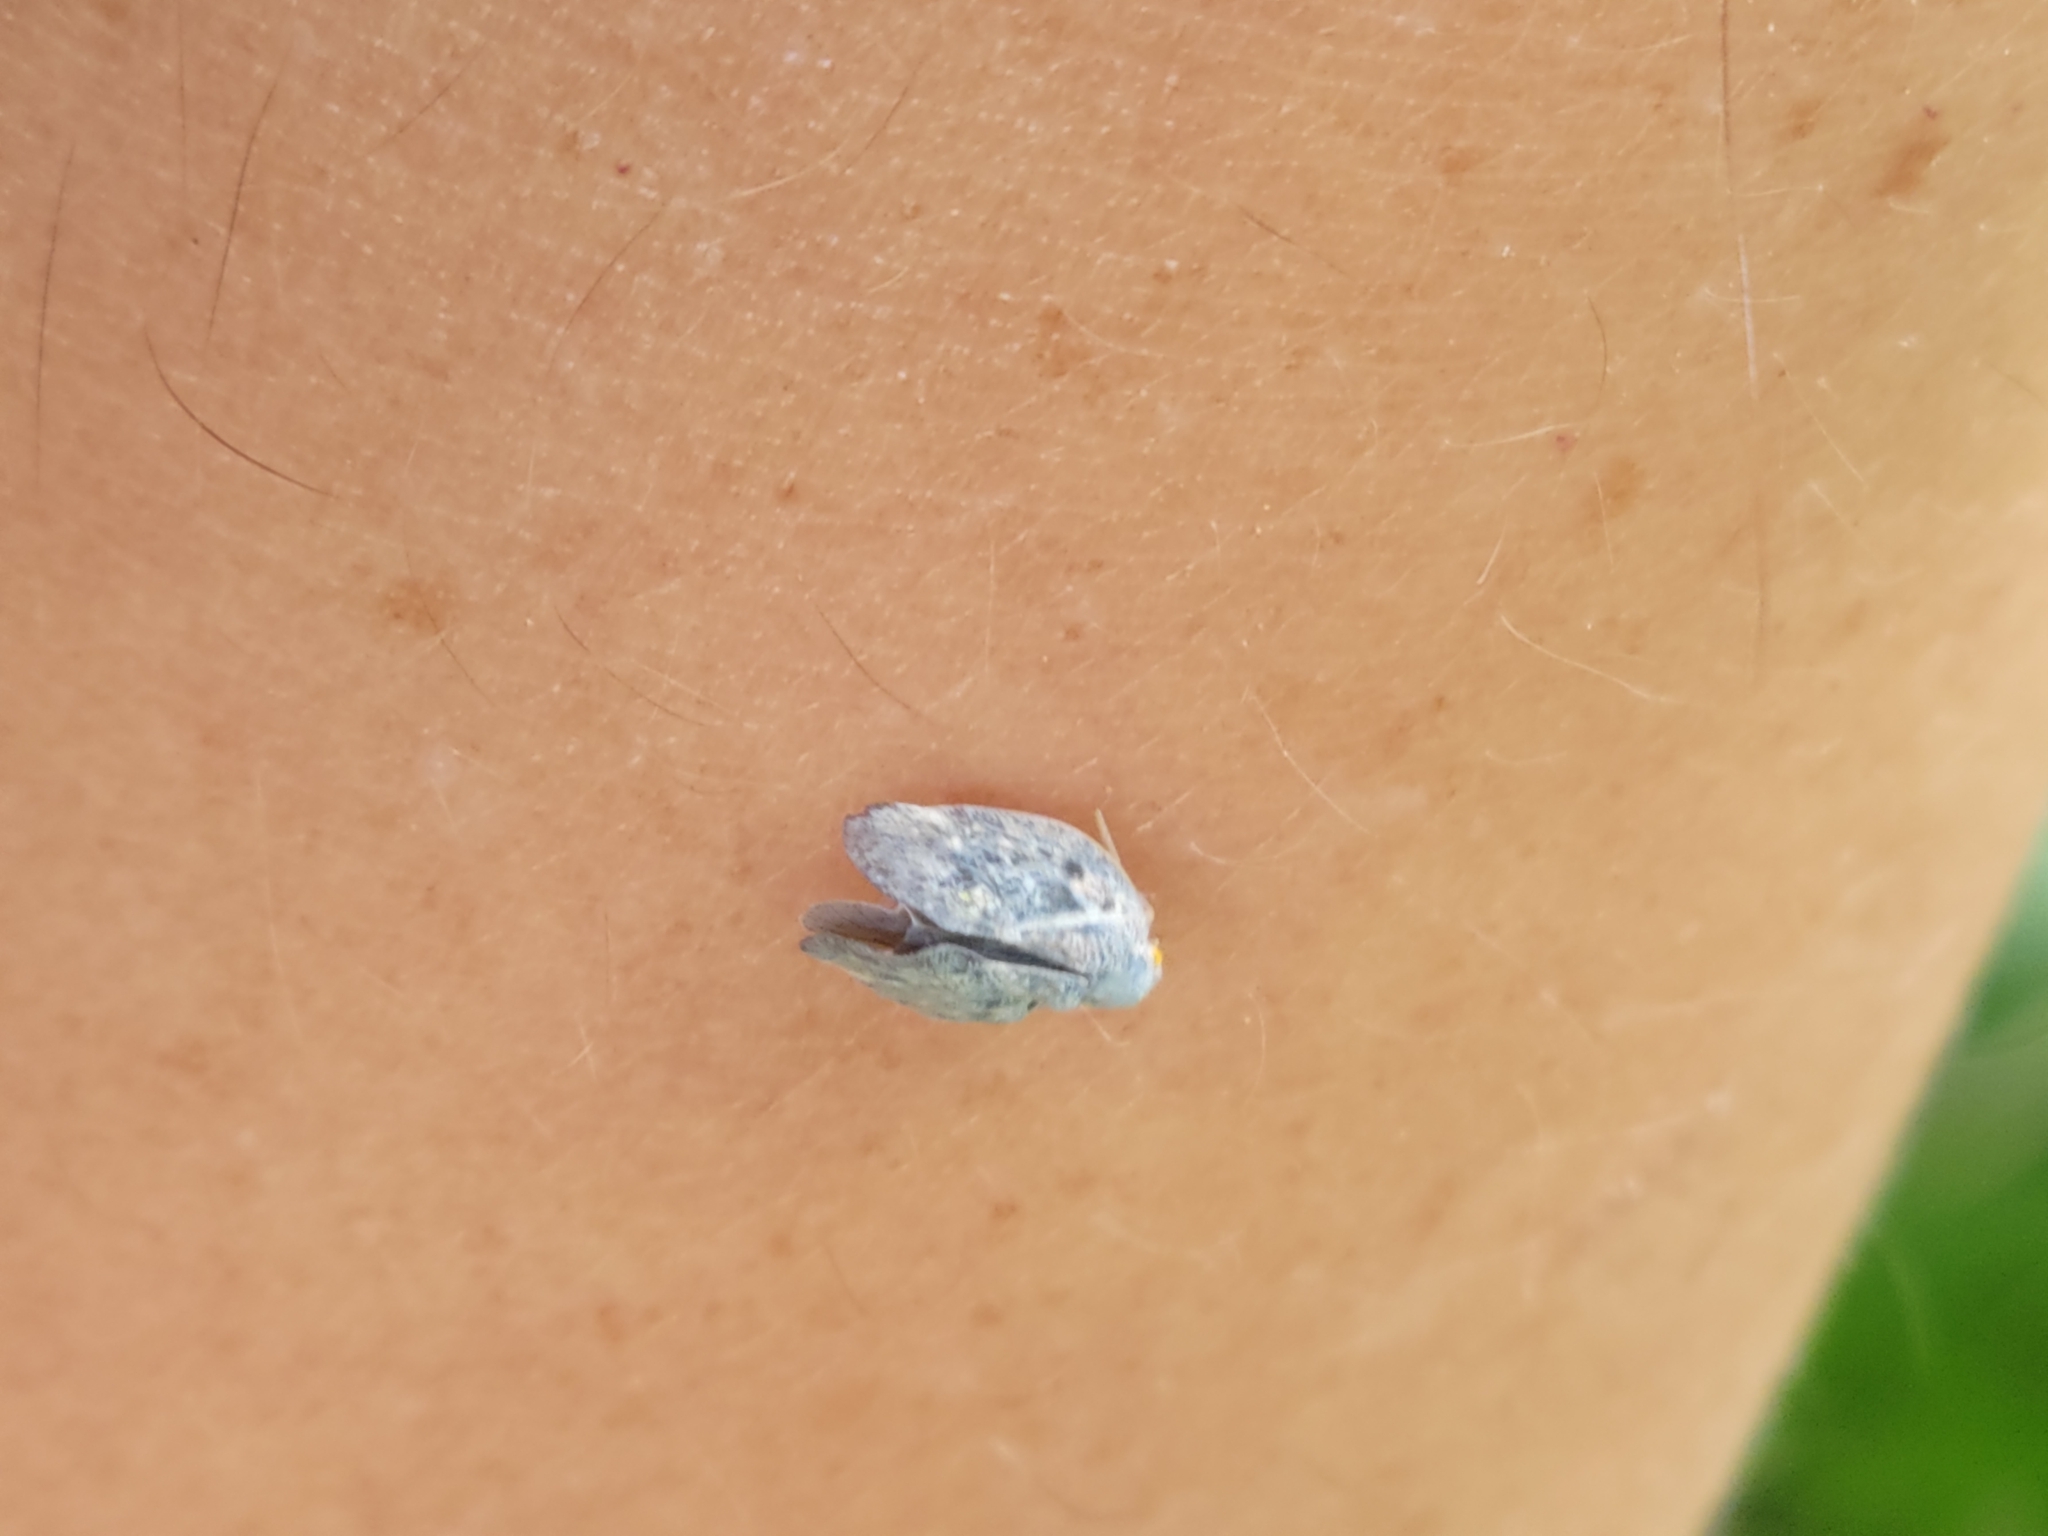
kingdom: Animalia
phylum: Arthropoda
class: Insecta
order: Hemiptera
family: Flatidae
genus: Metcalfa
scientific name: Metcalfa pruinosa
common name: Citrus flatid planthopper
